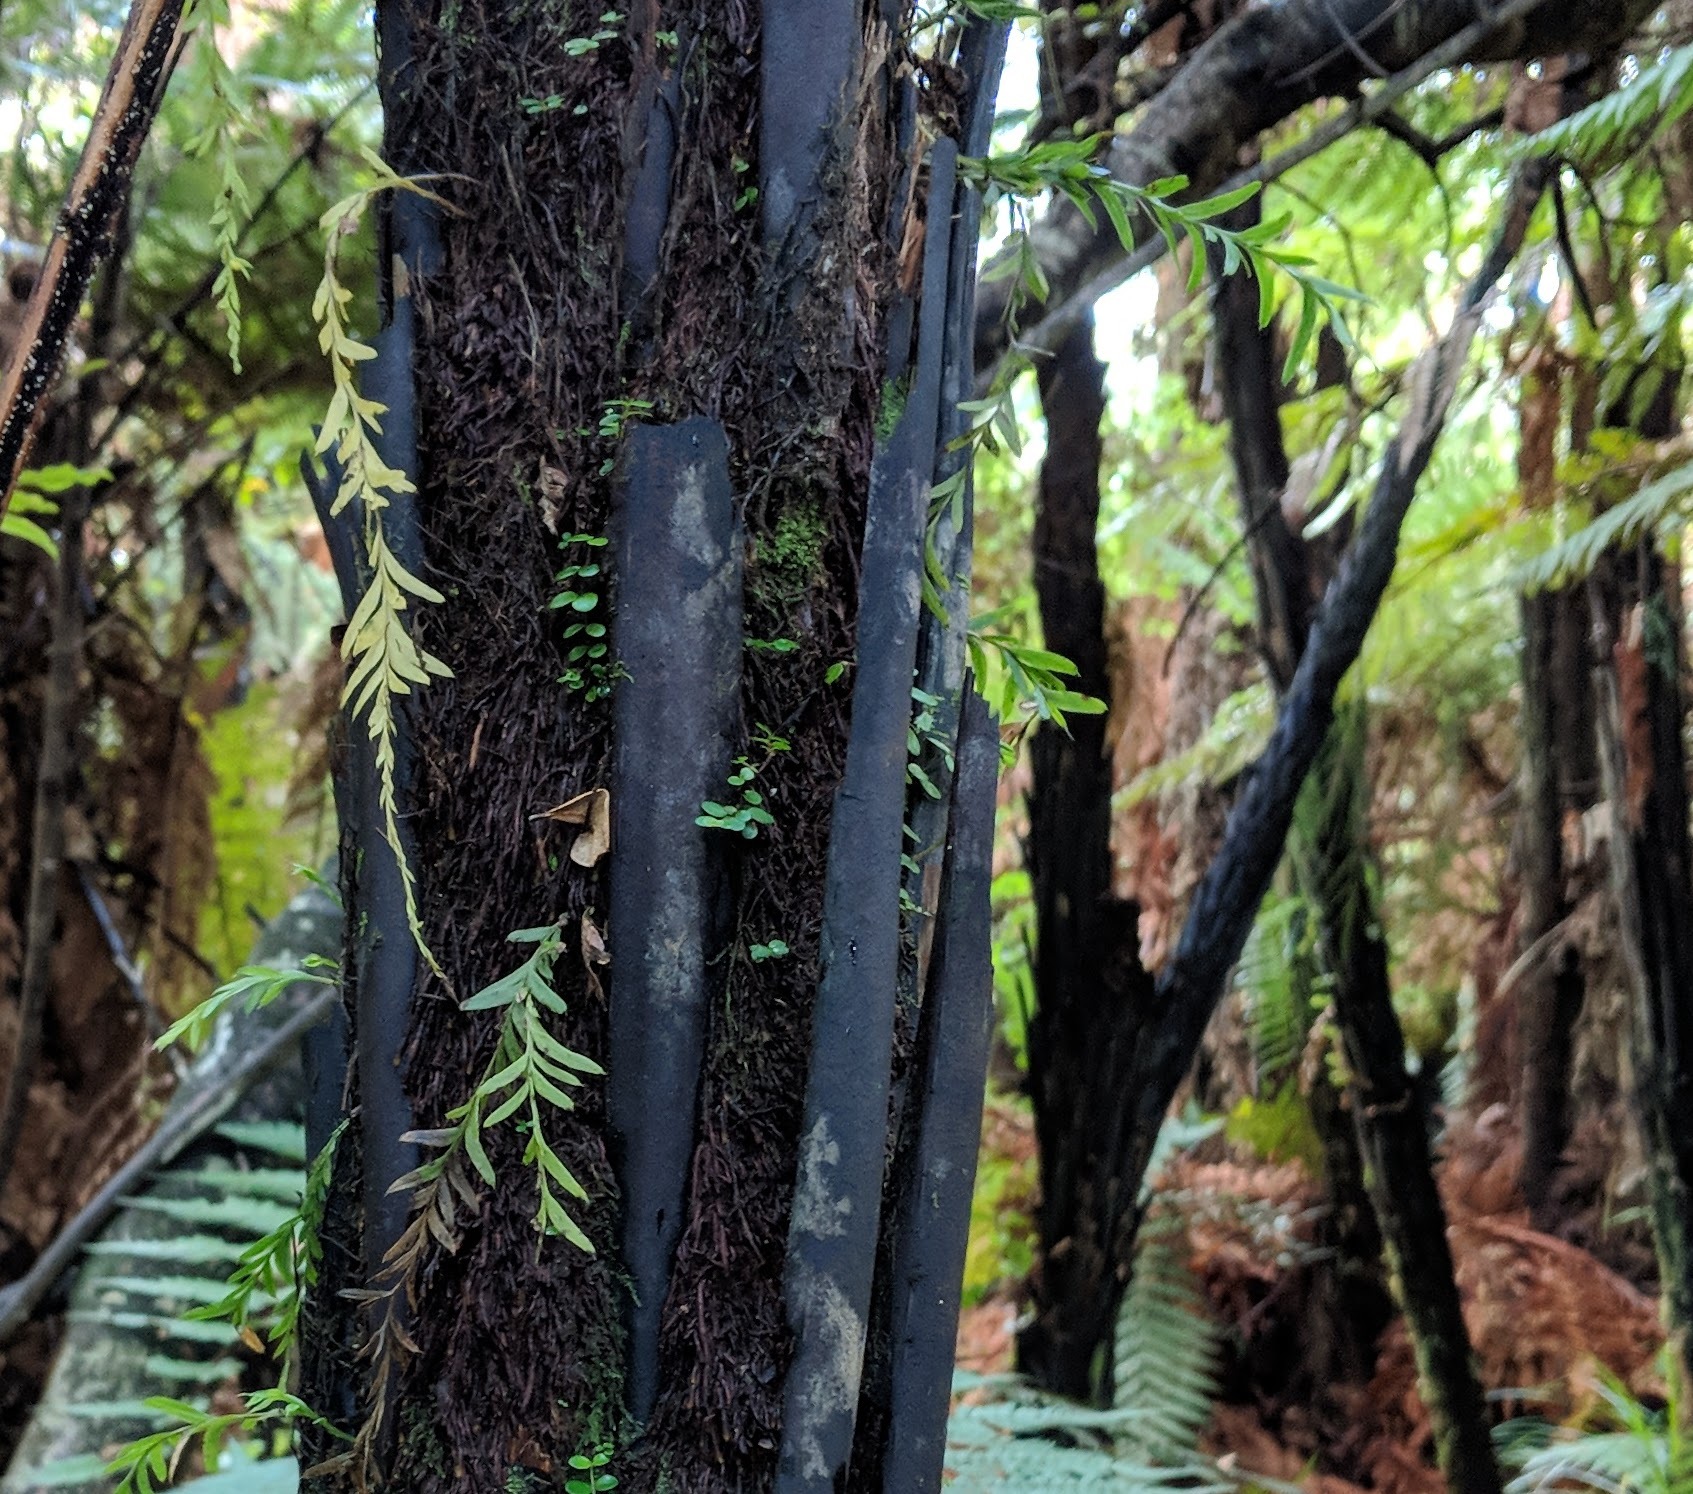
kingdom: Plantae
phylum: Tracheophyta
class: Polypodiopsida
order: Psilotales
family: Psilotaceae
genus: Tmesipteris
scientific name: Tmesipteris elongata
